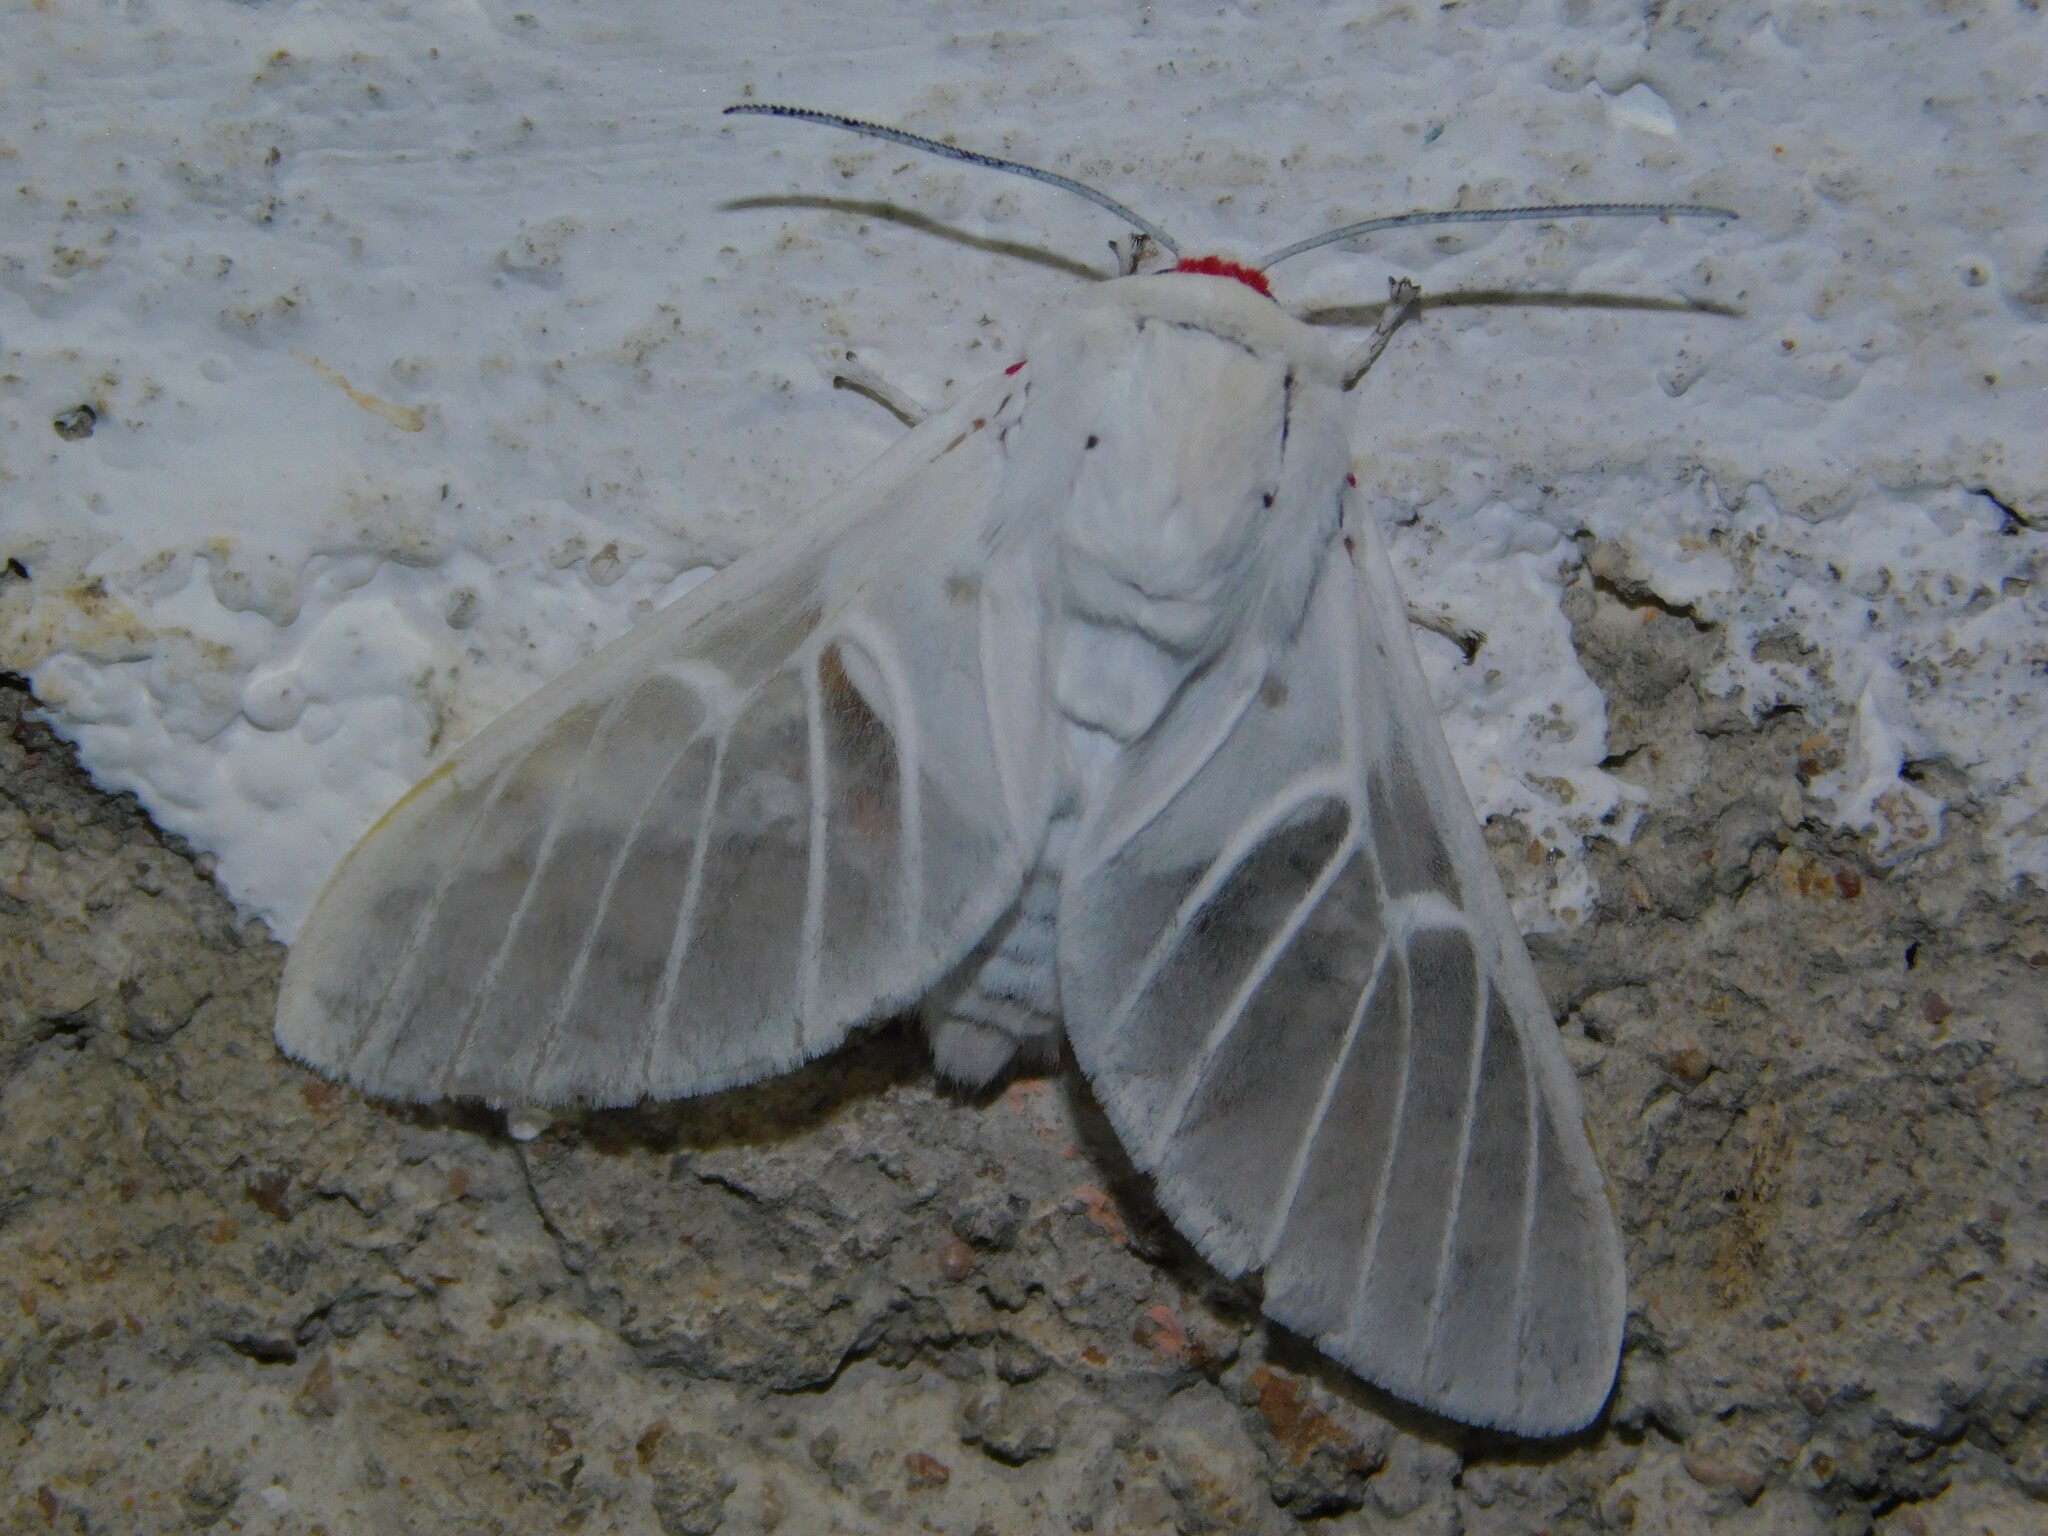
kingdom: Animalia
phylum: Arthropoda
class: Insecta
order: Lepidoptera
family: Erebidae
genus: Balacra
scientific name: Balacra pulchra
